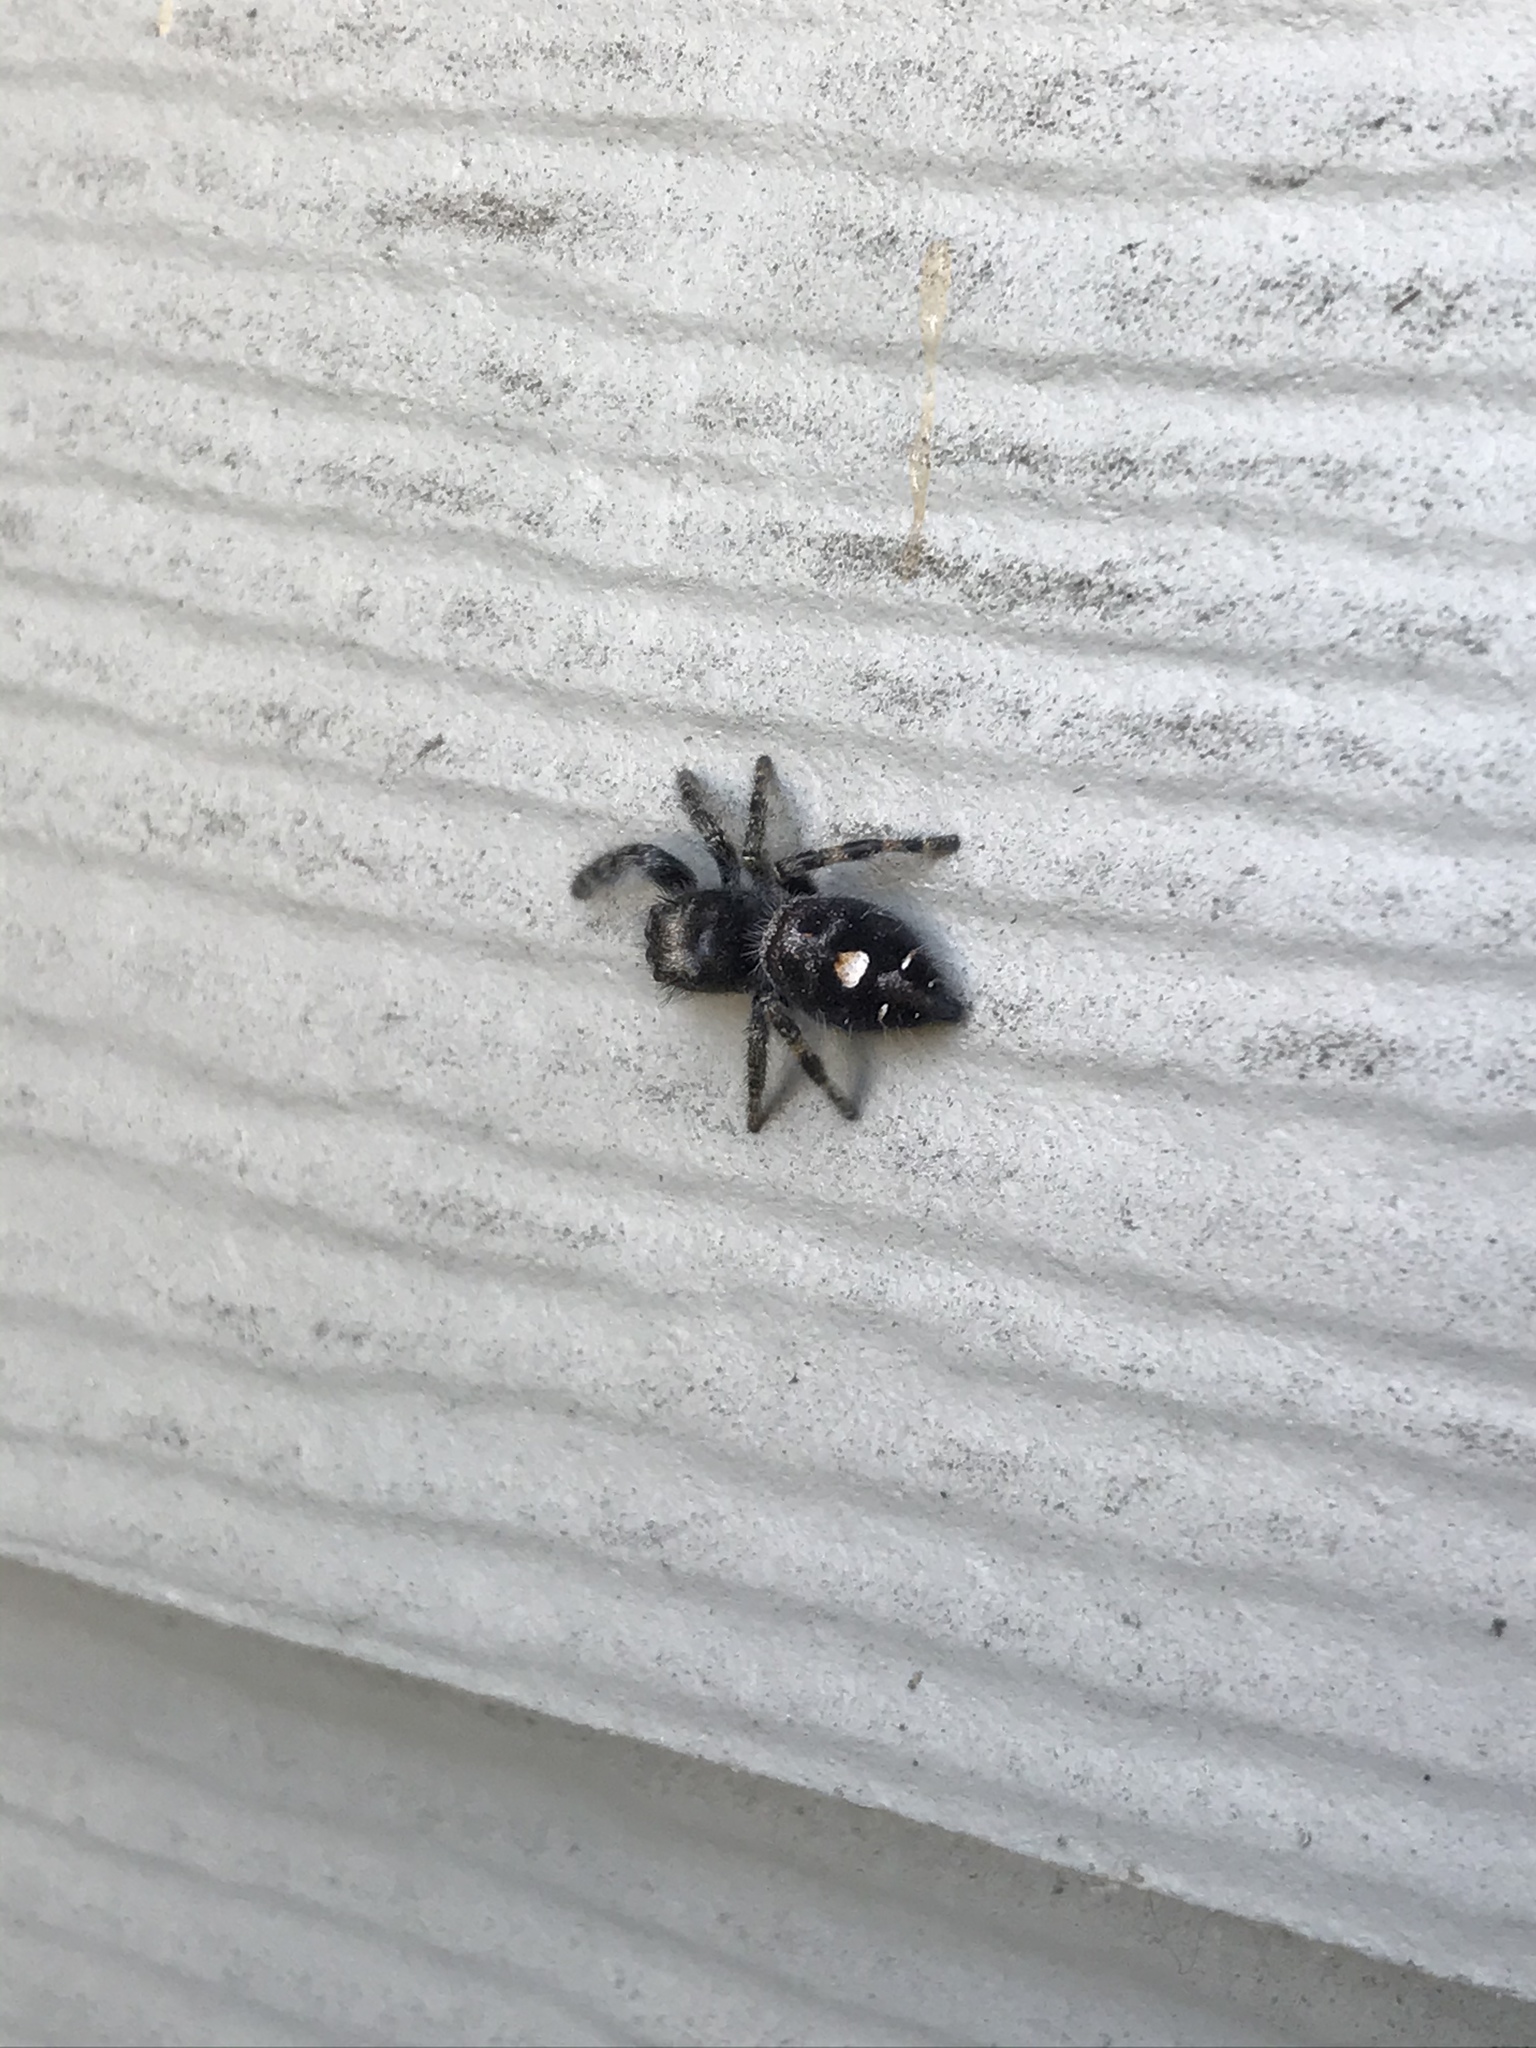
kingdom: Animalia
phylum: Arthropoda
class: Arachnida
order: Araneae
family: Salticidae
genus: Phidippus
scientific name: Phidippus audax
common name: Bold jumper
